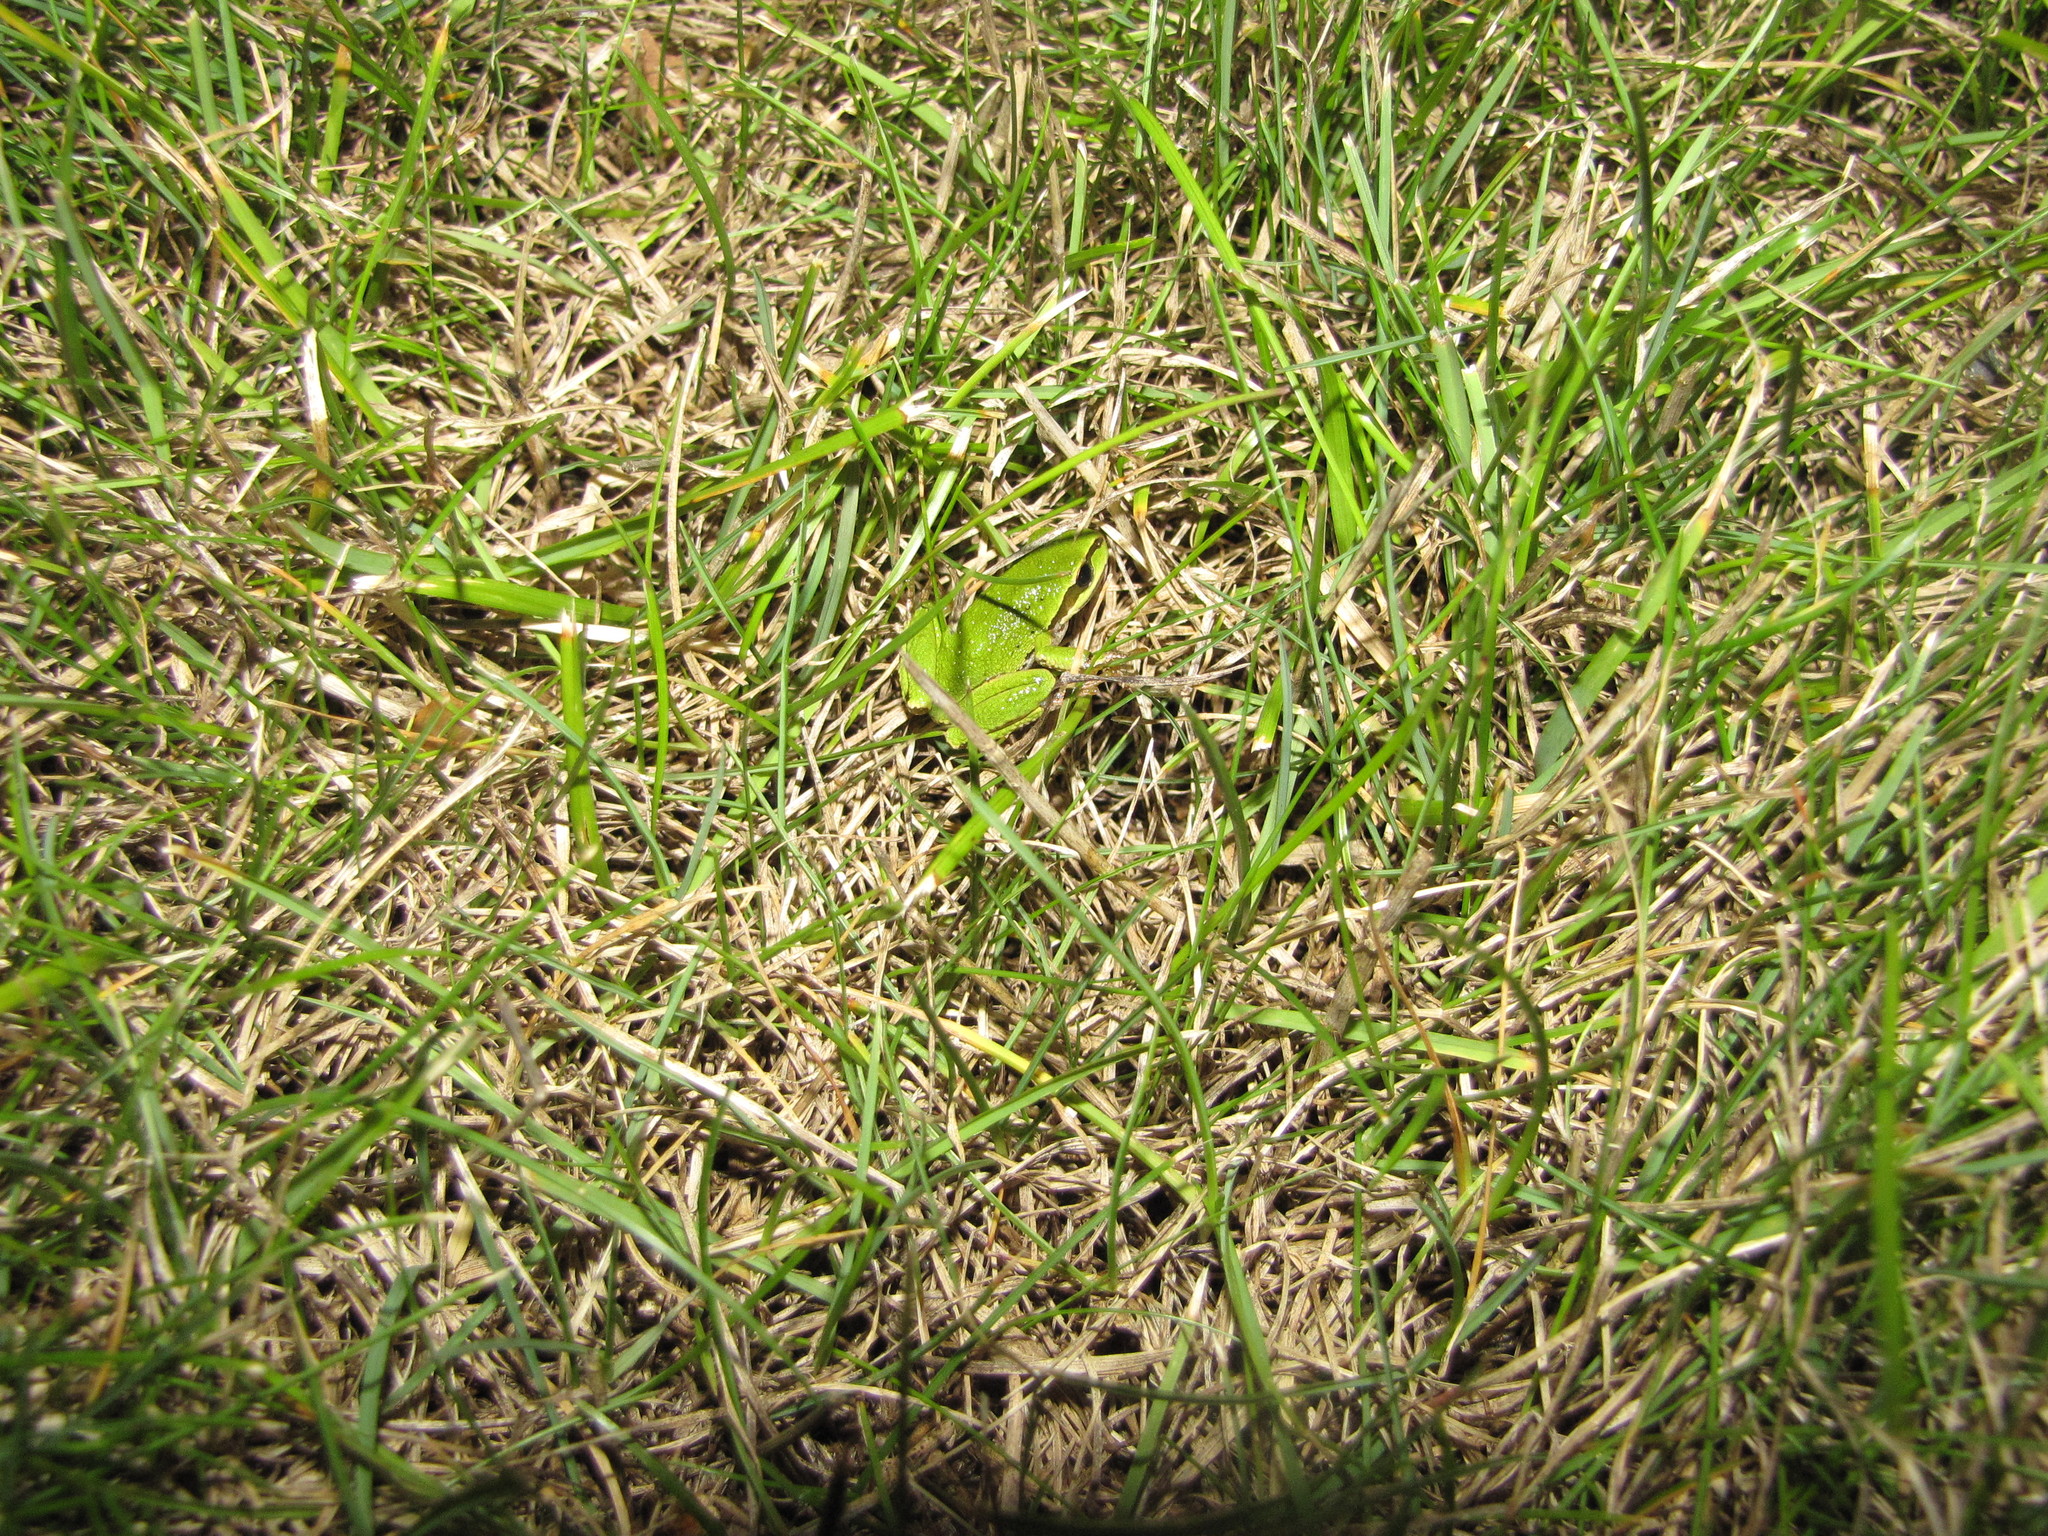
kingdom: Animalia
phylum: Chordata
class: Amphibia
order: Anura
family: Hylidae
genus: Pseudacris
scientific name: Pseudacris regilla
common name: Pacific chorus frog
